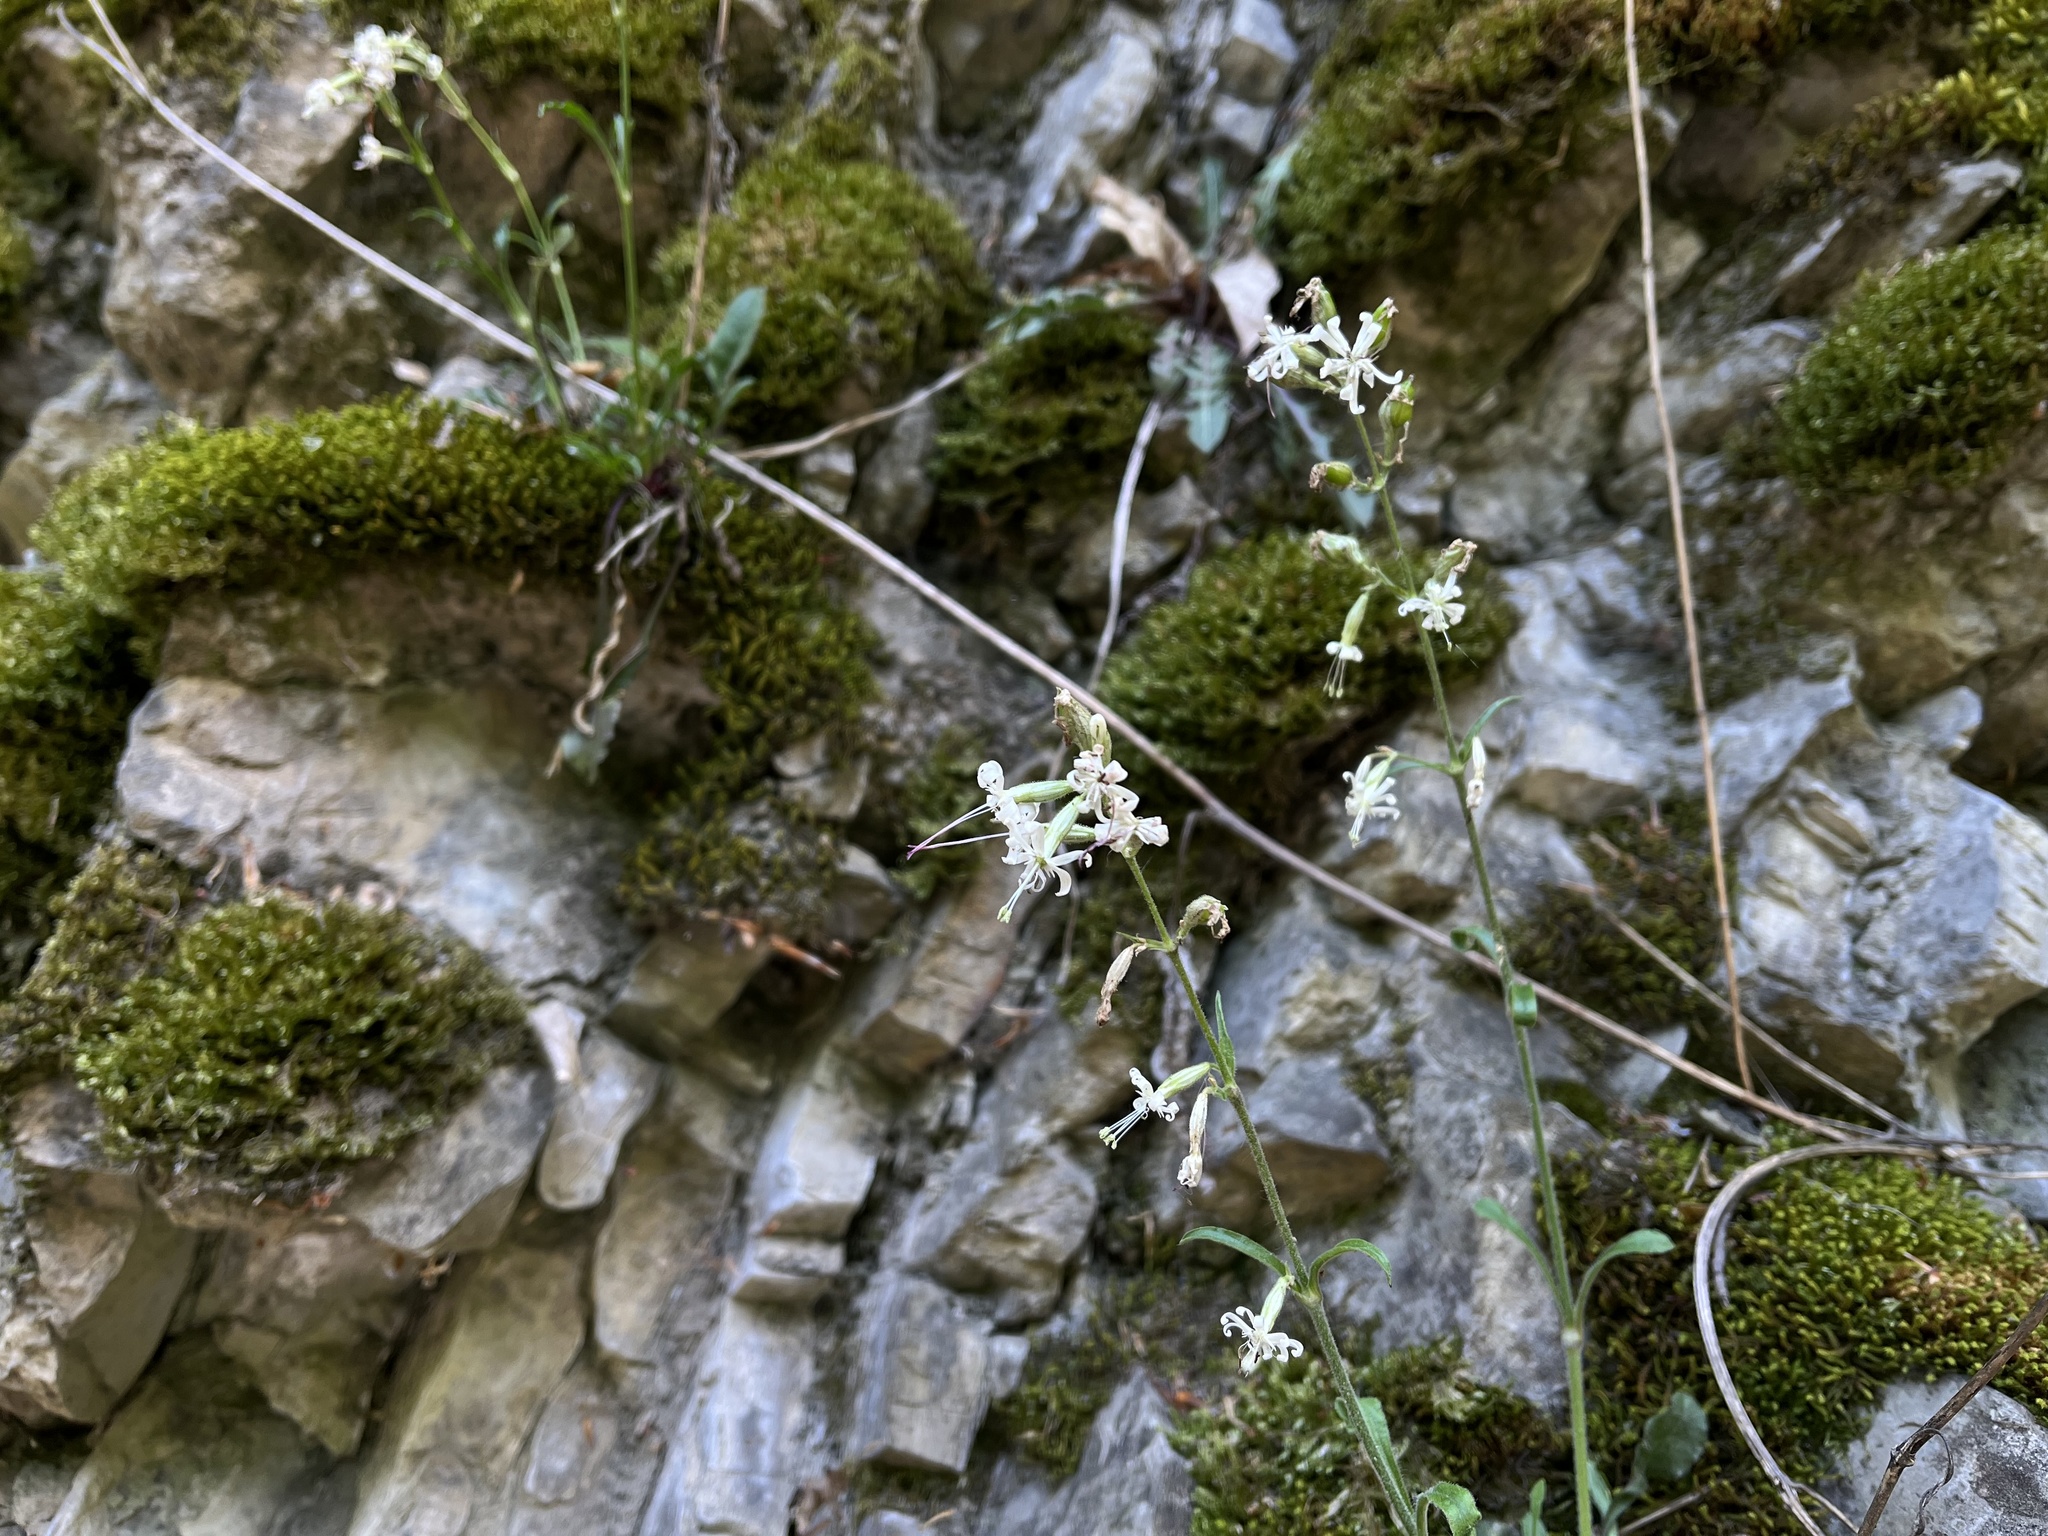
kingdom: Plantae
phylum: Tracheophyta
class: Magnoliopsida
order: Caryophyllales
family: Caryophyllaceae
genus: Silene
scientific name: Silene nutans
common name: Nottingham catchfly
